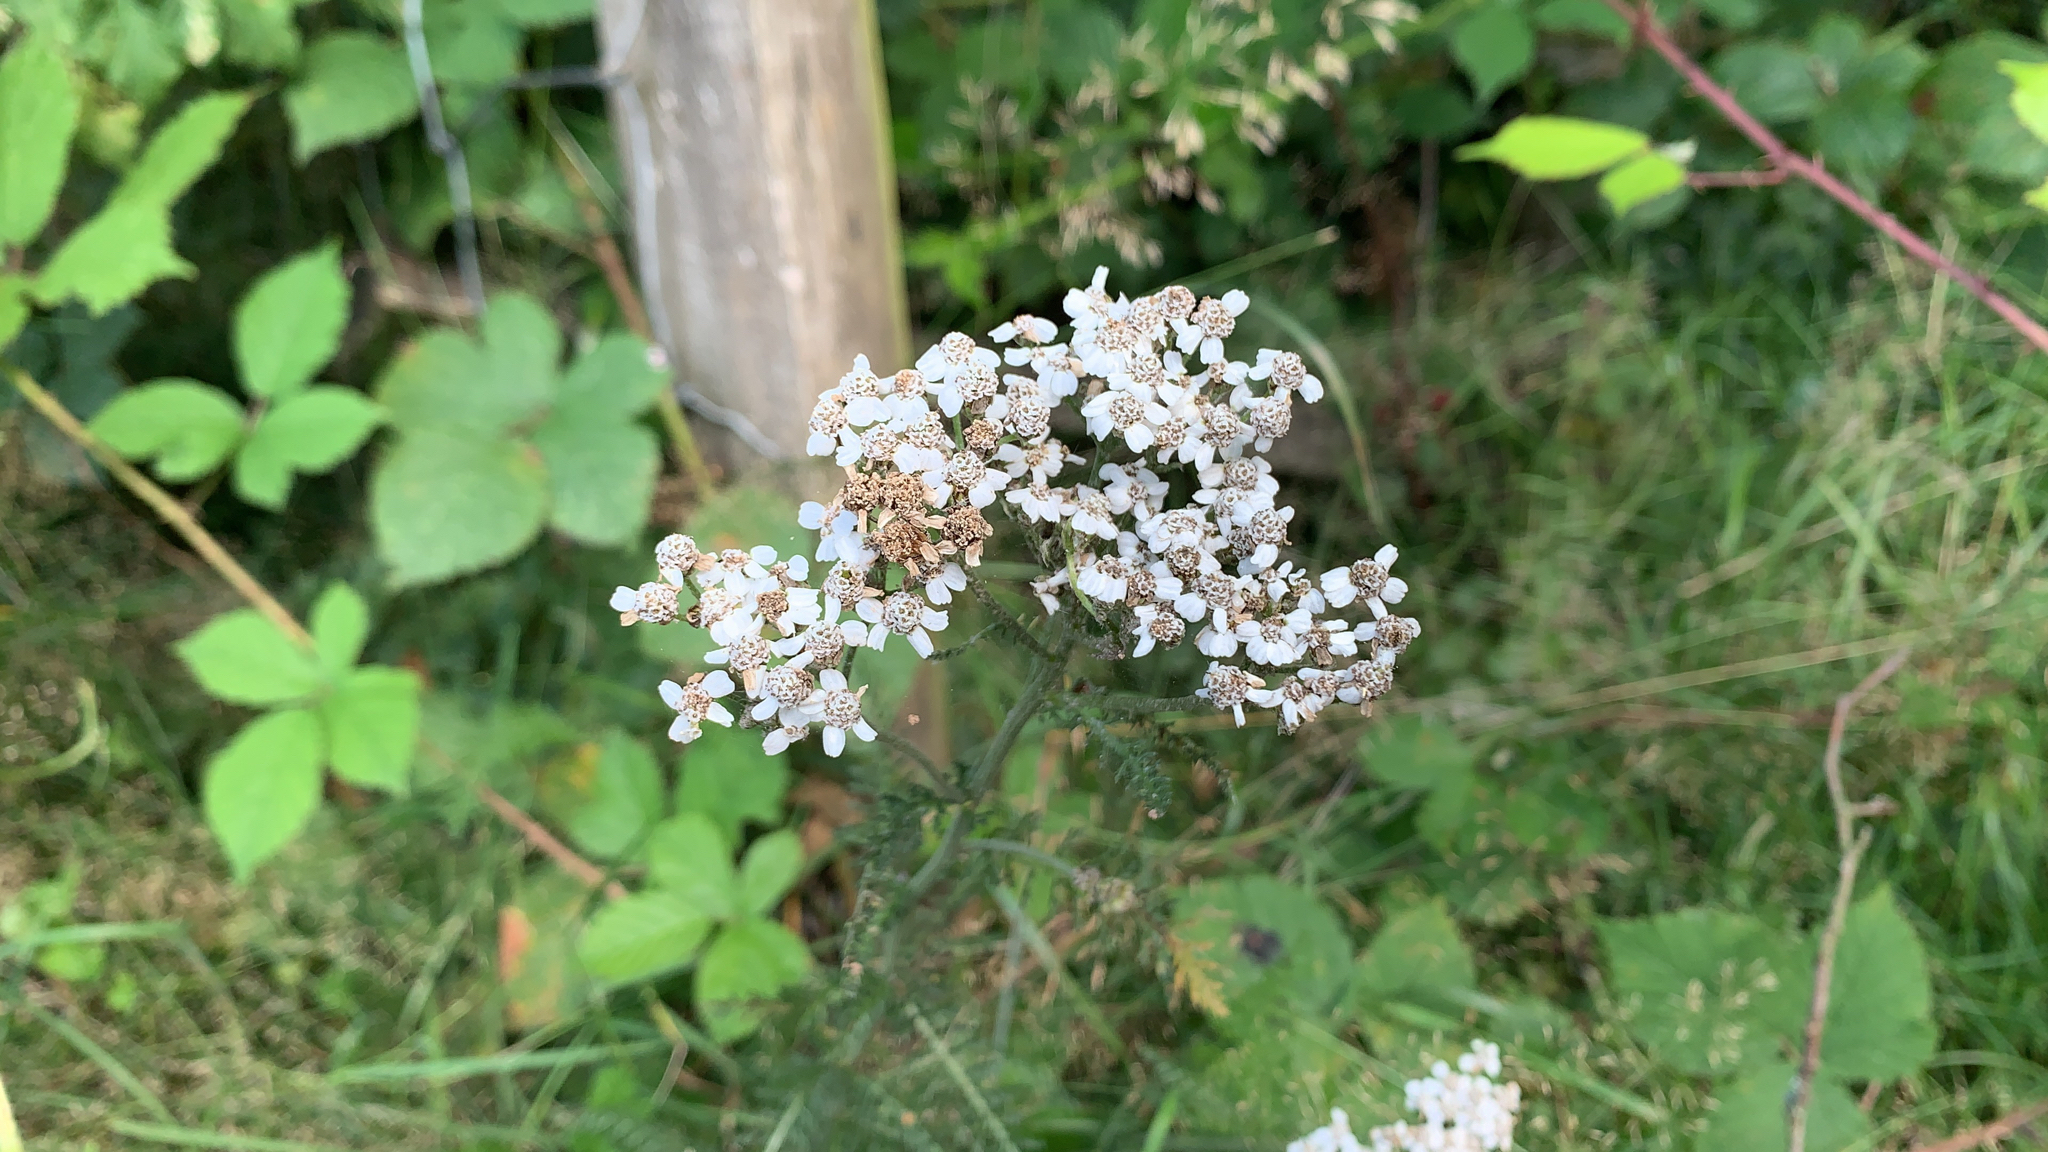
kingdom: Plantae
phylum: Tracheophyta
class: Magnoliopsida
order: Asterales
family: Asteraceae
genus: Achillea
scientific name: Achillea millefolium
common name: Yarrow
